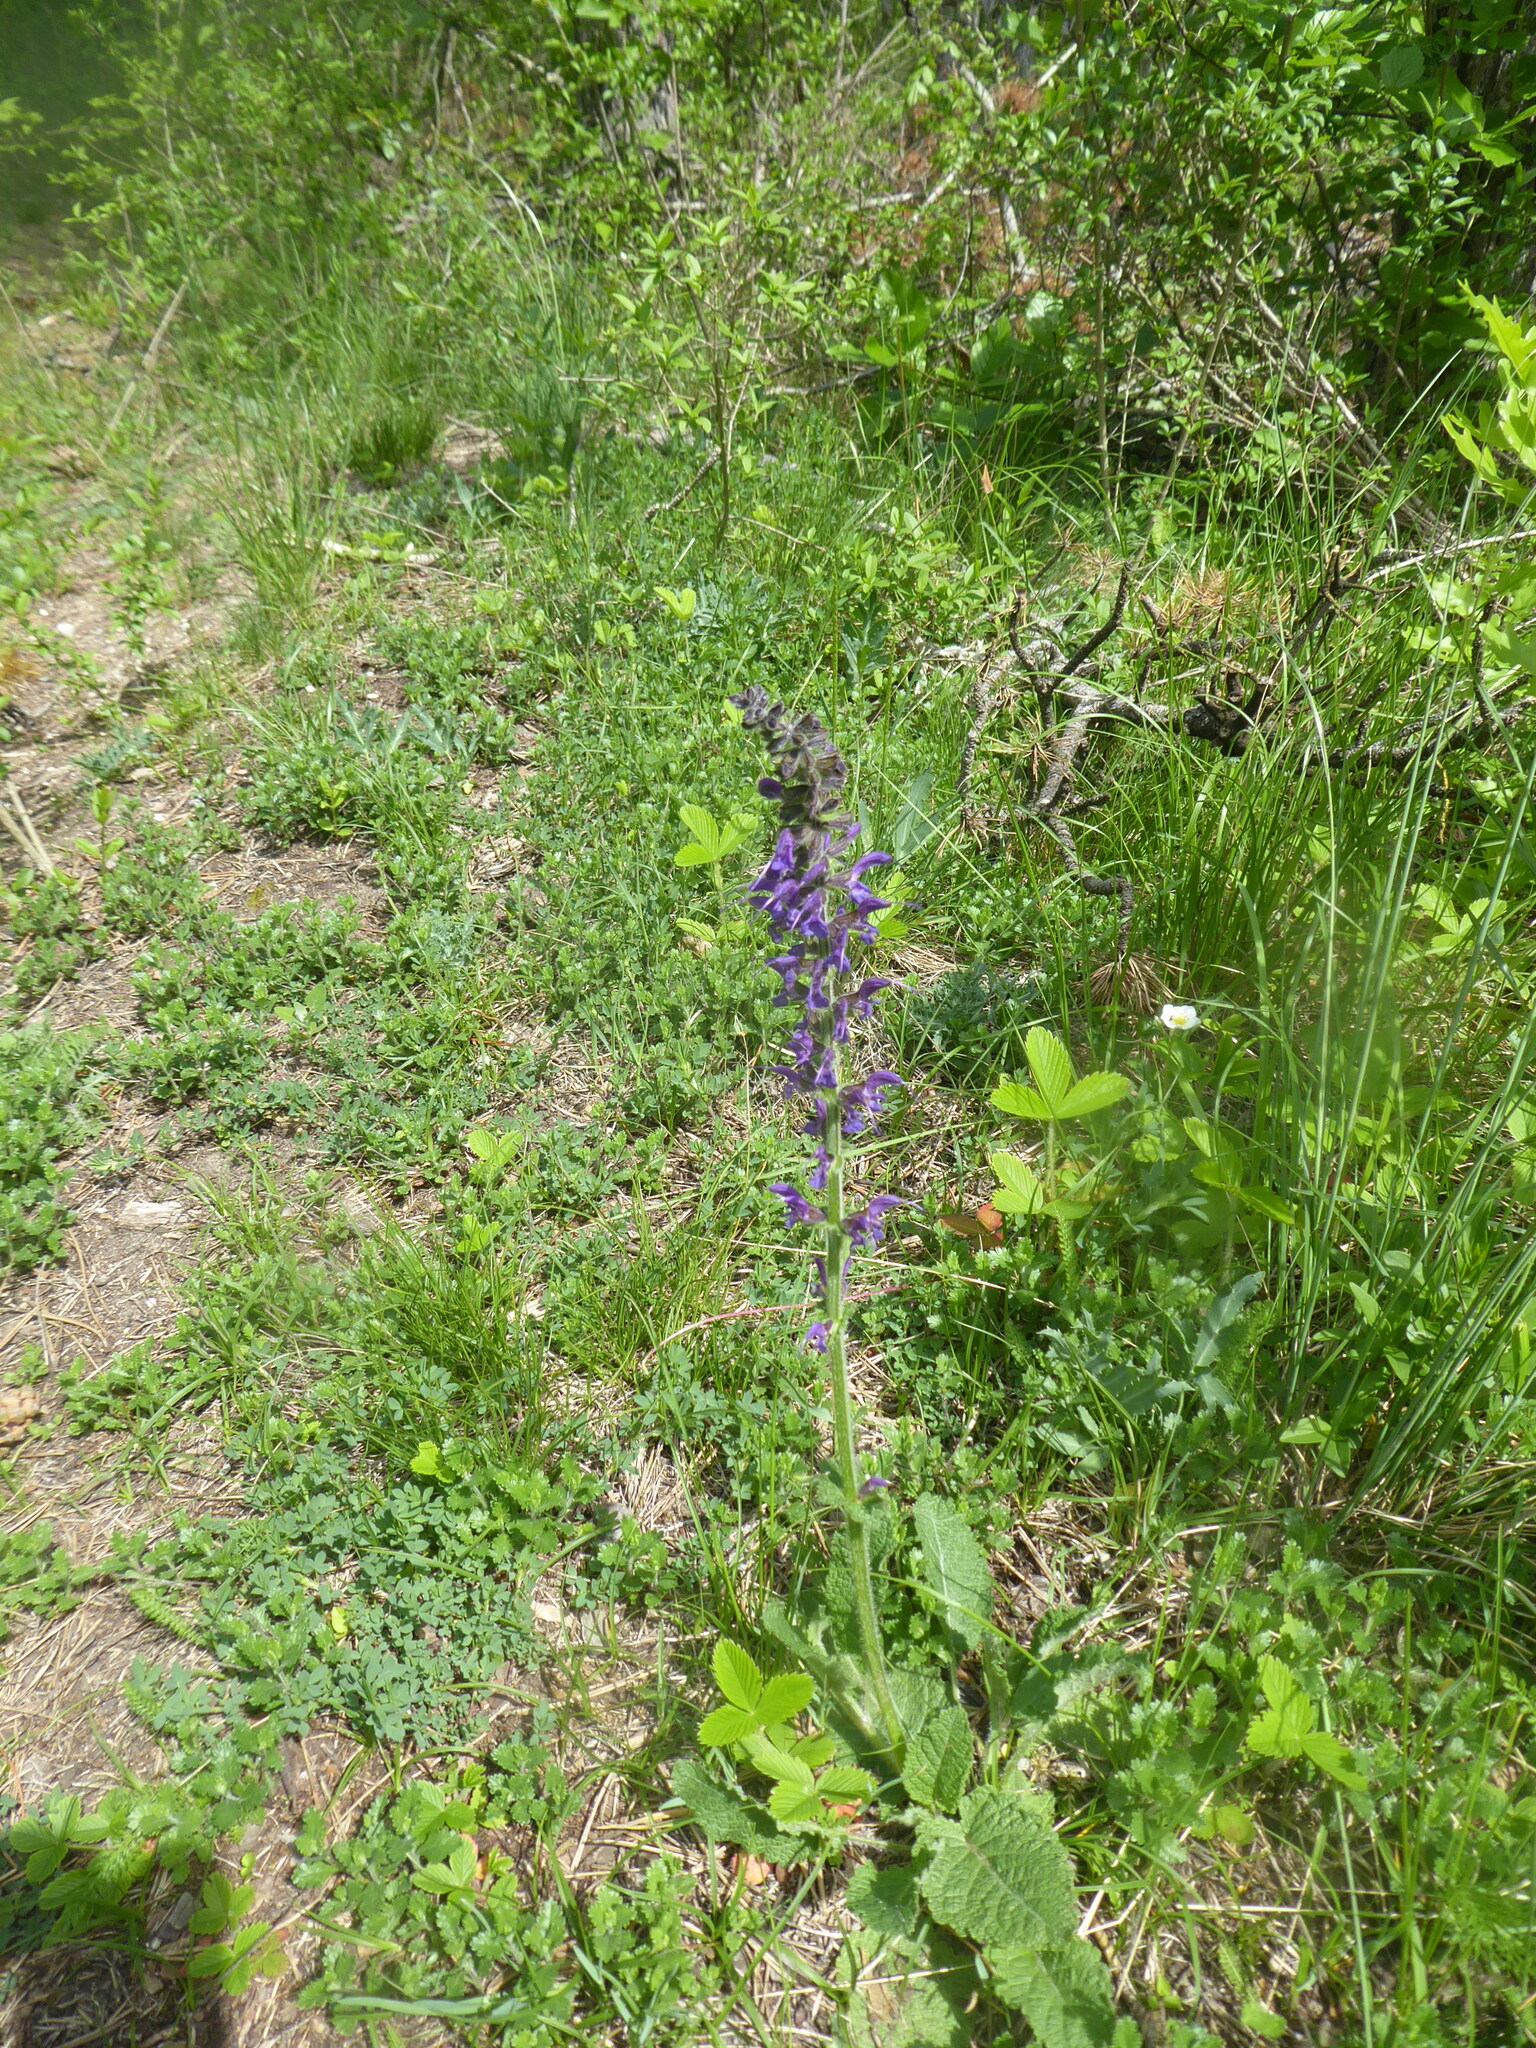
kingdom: Plantae
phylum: Tracheophyta
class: Magnoliopsida
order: Lamiales
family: Lamiaceae
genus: Salvia
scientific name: Salvia pratensis
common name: Meadow sage
